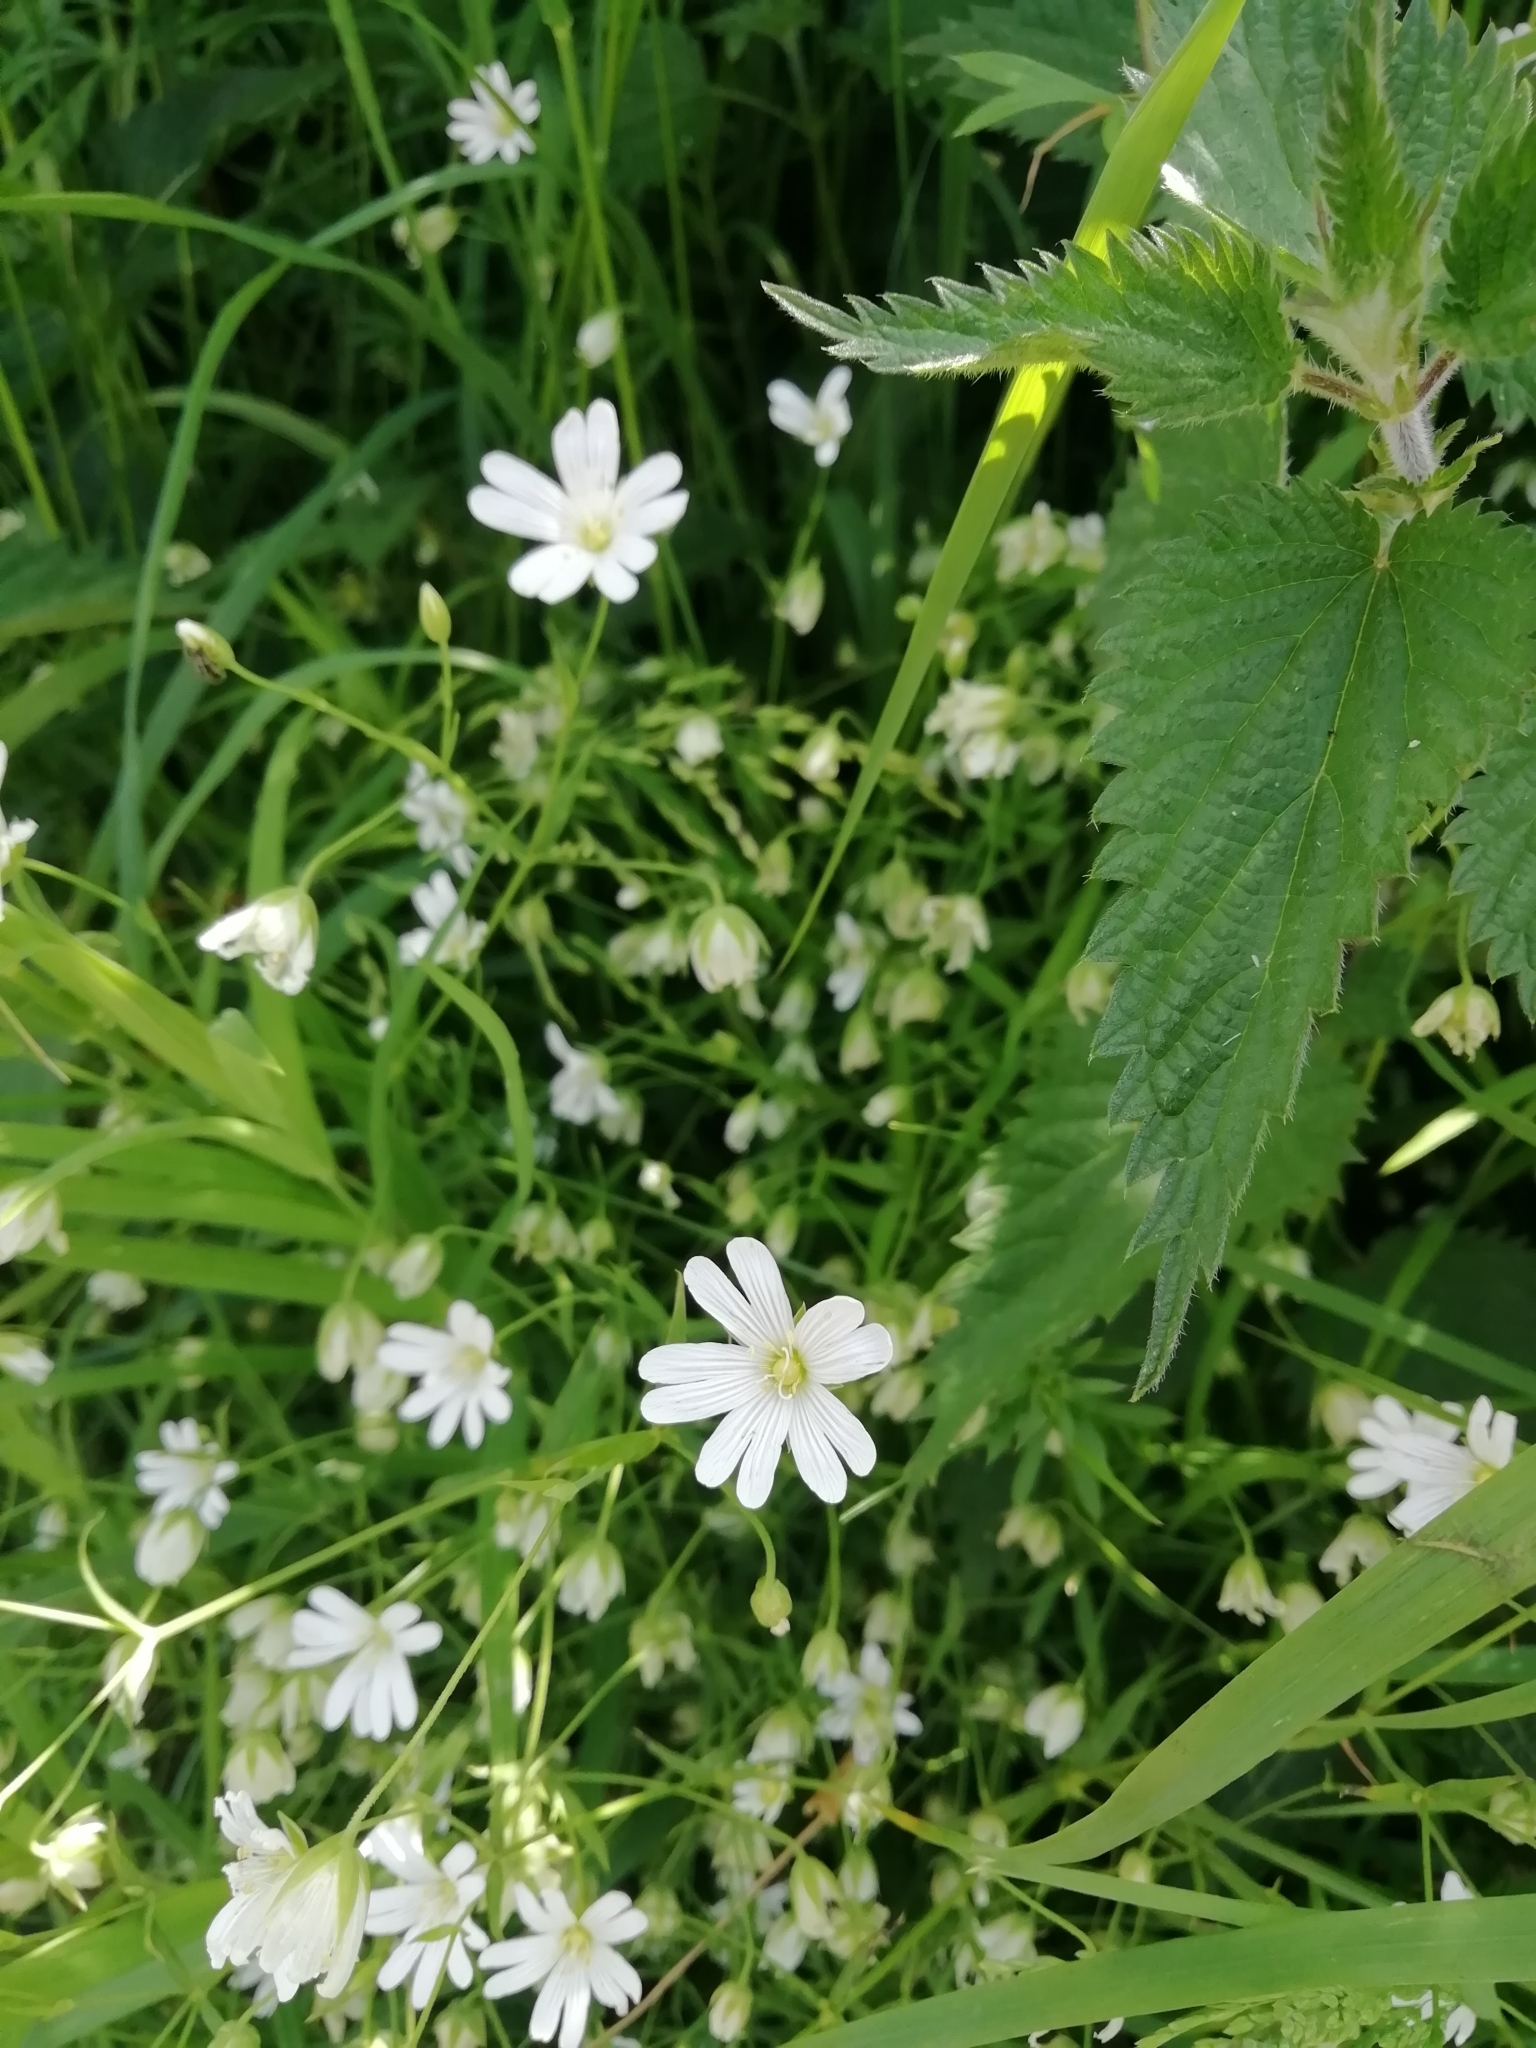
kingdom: Plantae
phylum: Tracheophyta
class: Magnoliopsida
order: Caryophyllales
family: Caryophyllaceae
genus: Rabelera
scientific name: Rabelera holostea
